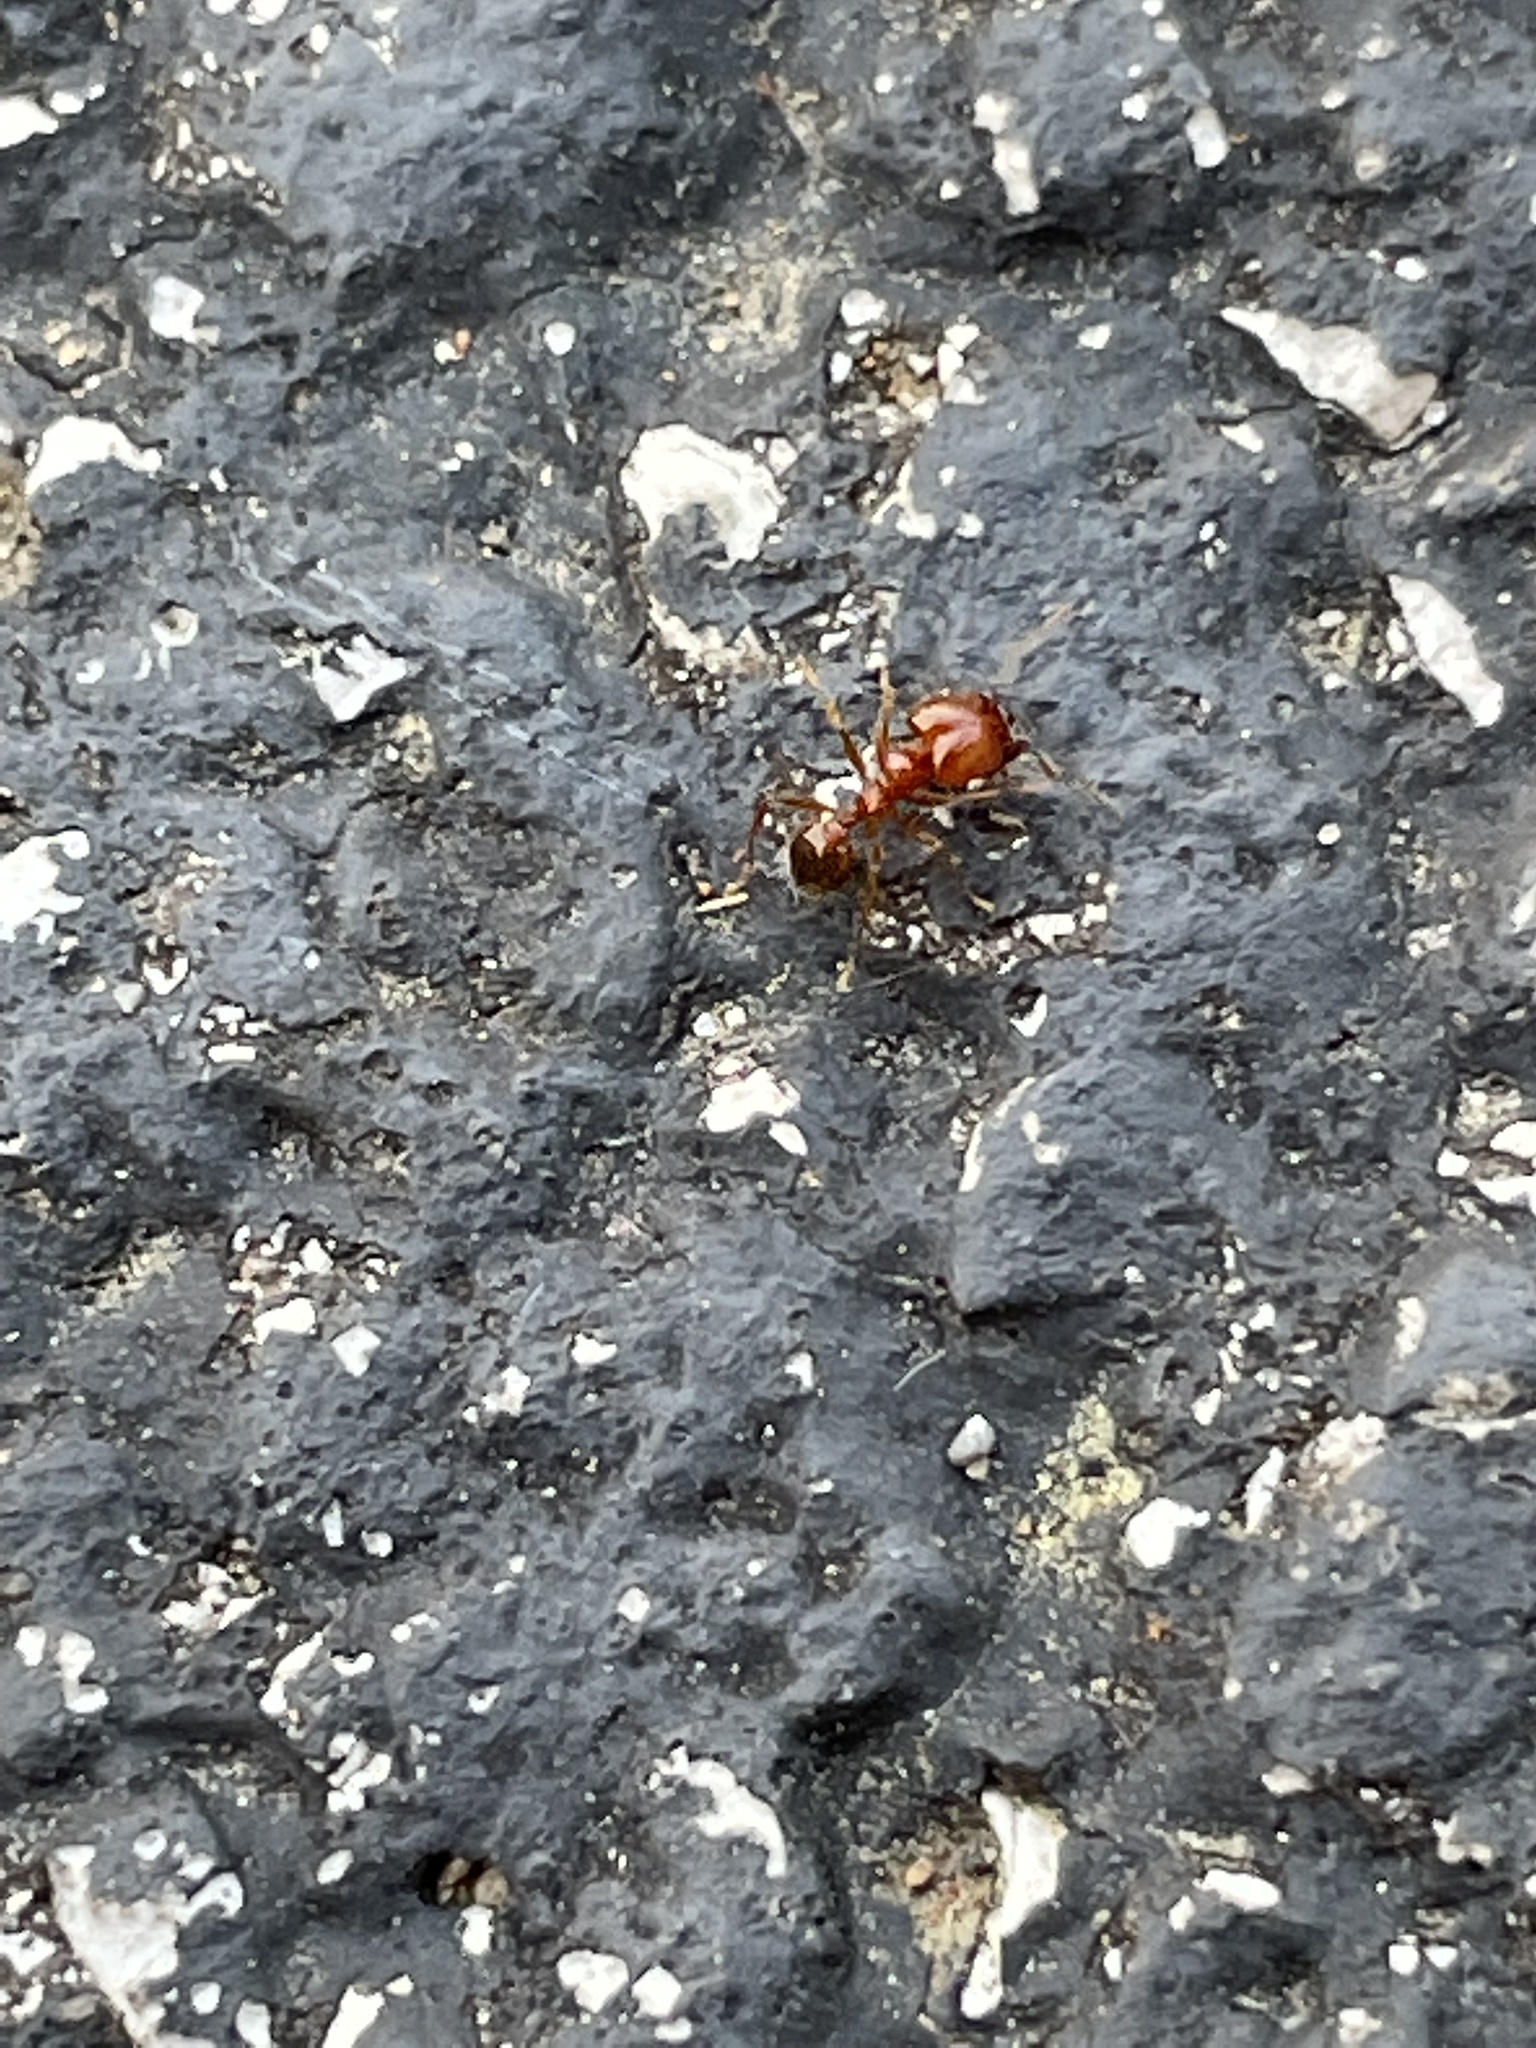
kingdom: Animalia
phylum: Arthropoda
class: Insecta
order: Hymenoptera
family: Formicidae
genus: Pheidole
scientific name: Pheidole dentata
